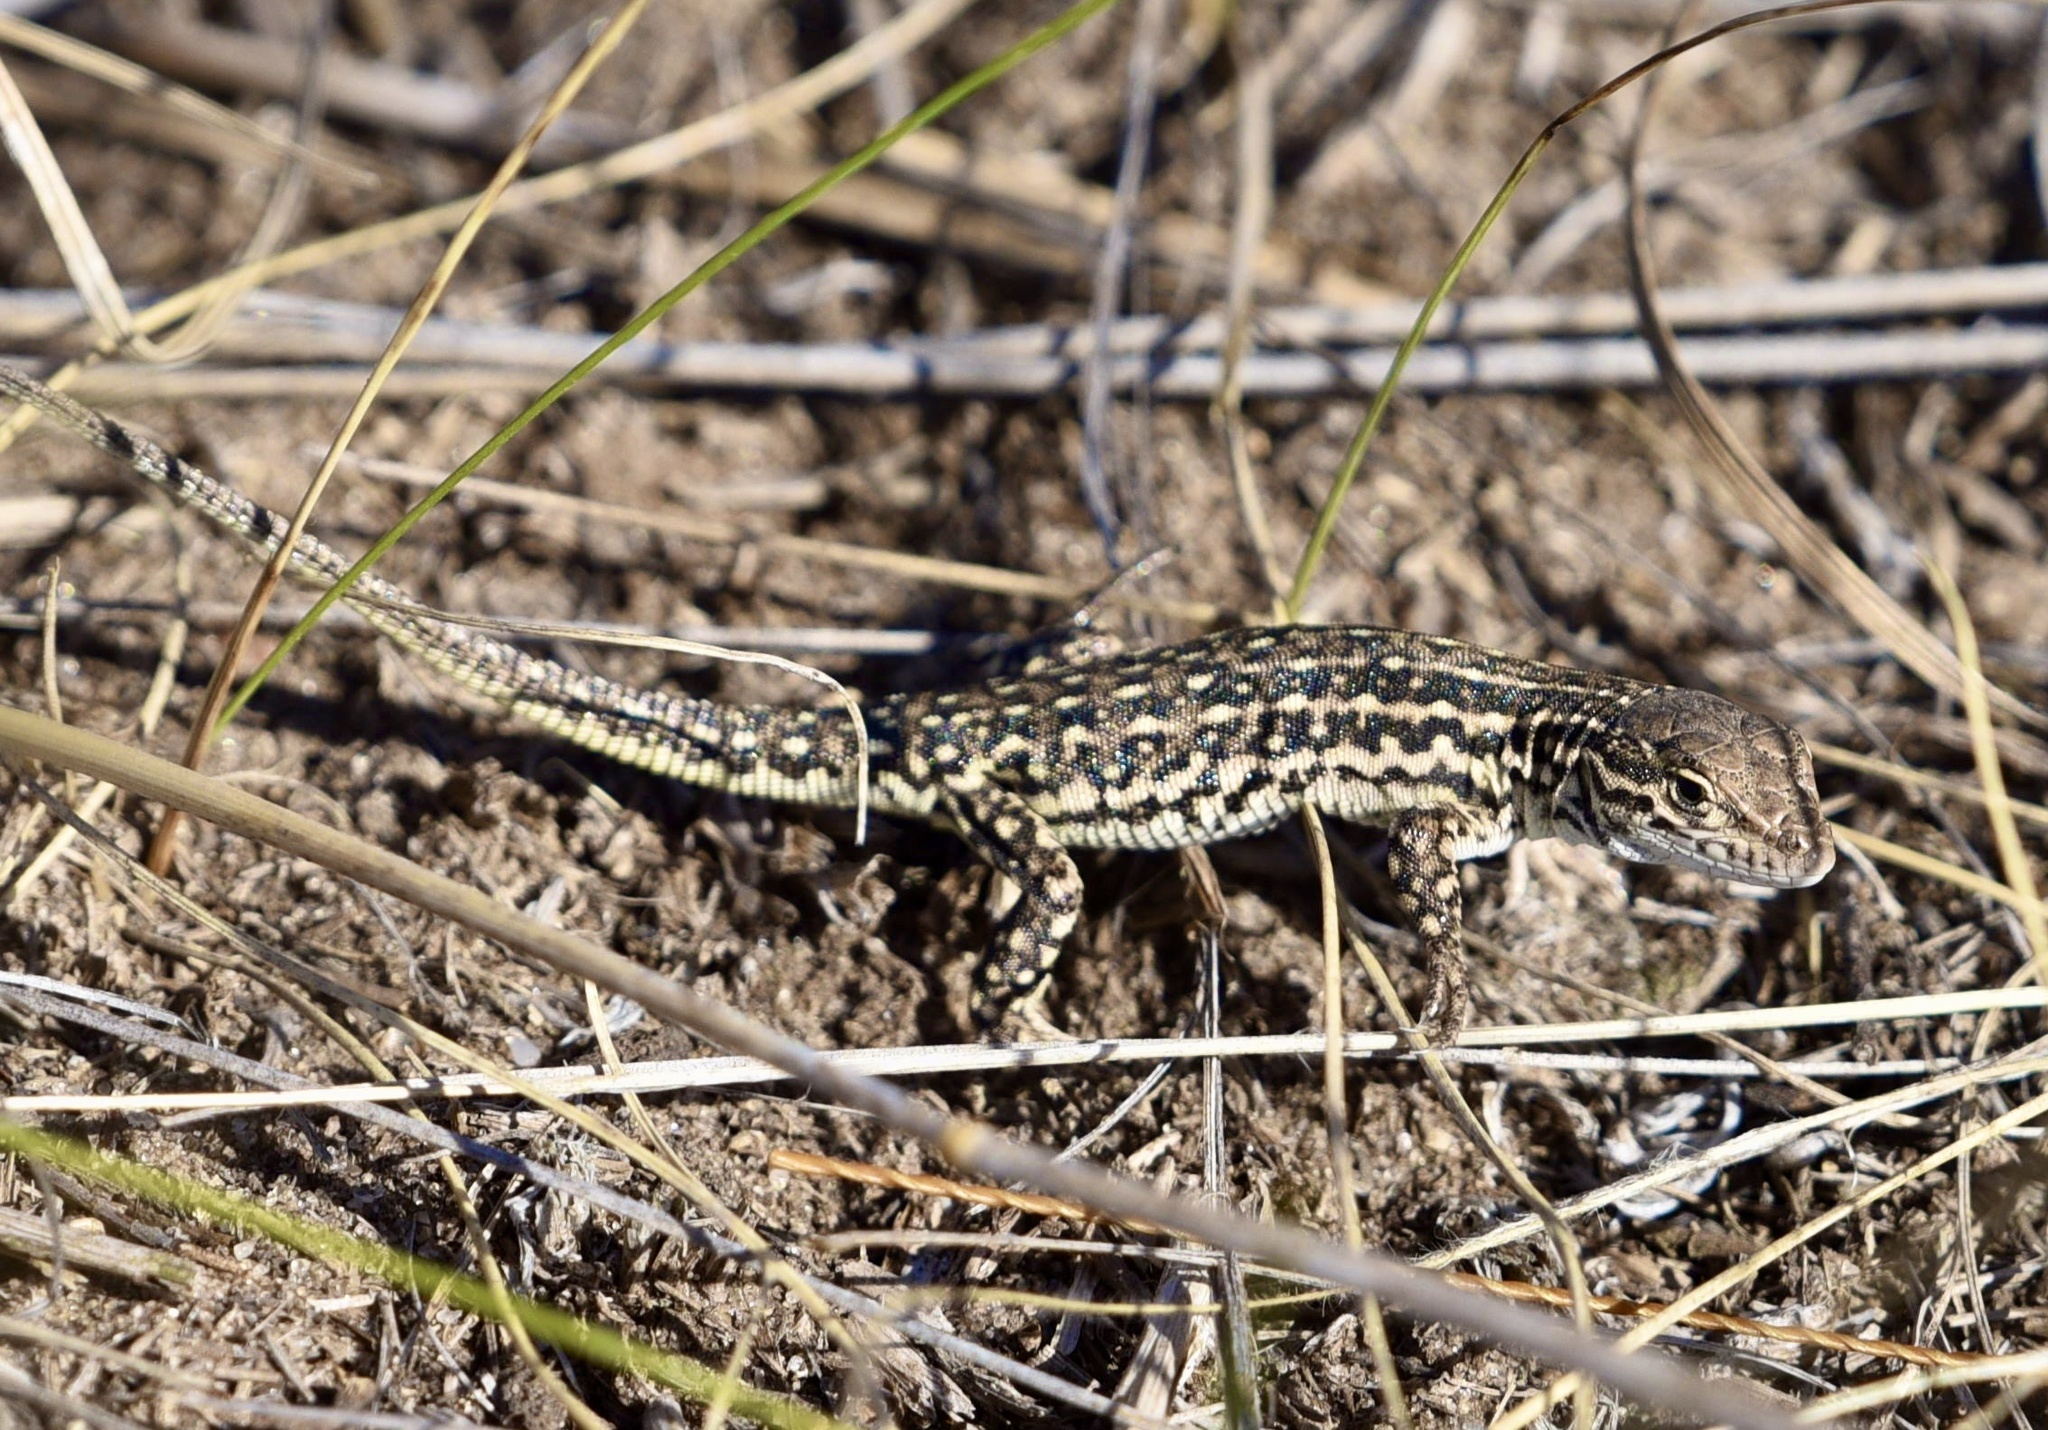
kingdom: Animalia
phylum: Chordata
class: Squamata
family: Lacertidae
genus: Eremias
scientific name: Eremias arguta
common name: Racerunner
